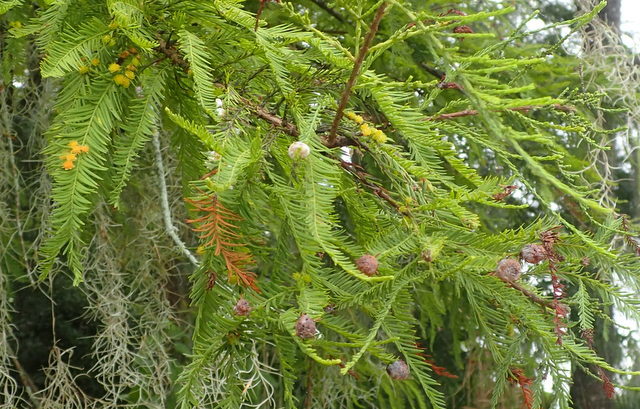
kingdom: Animalia
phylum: Arthropoda
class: Insecta
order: Diptera
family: Cecidomyiidae
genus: Taxodiomyia
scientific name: Taxodiomyia cupressi
